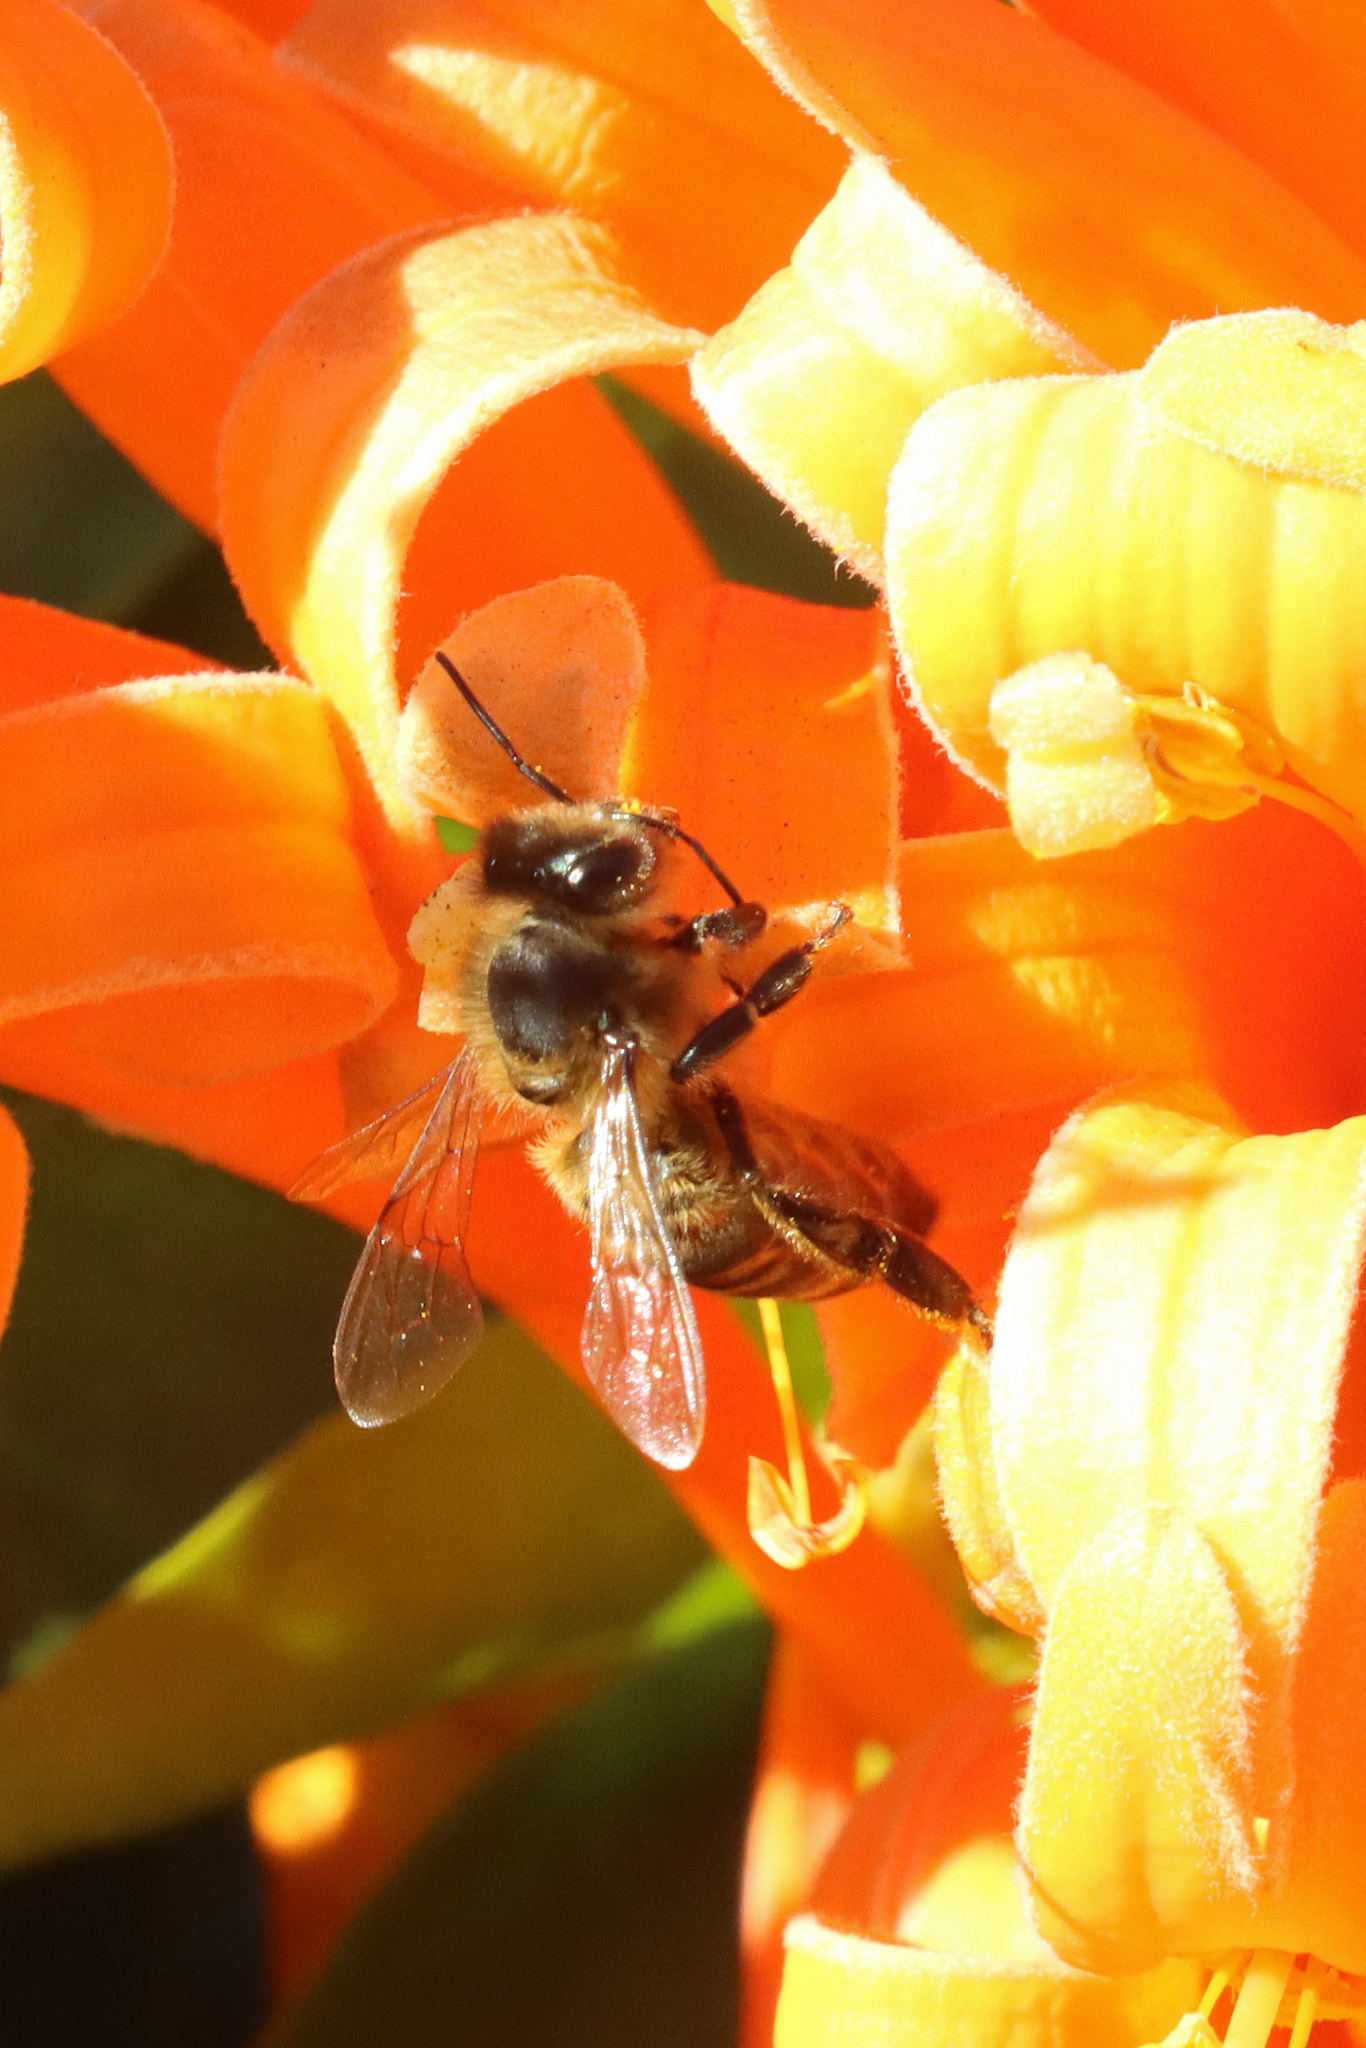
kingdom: Animalia
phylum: Arthropoda
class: Insecta
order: Hymenoptera
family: Apidae
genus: Apis
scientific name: Apis mellifera
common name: Honey bee
